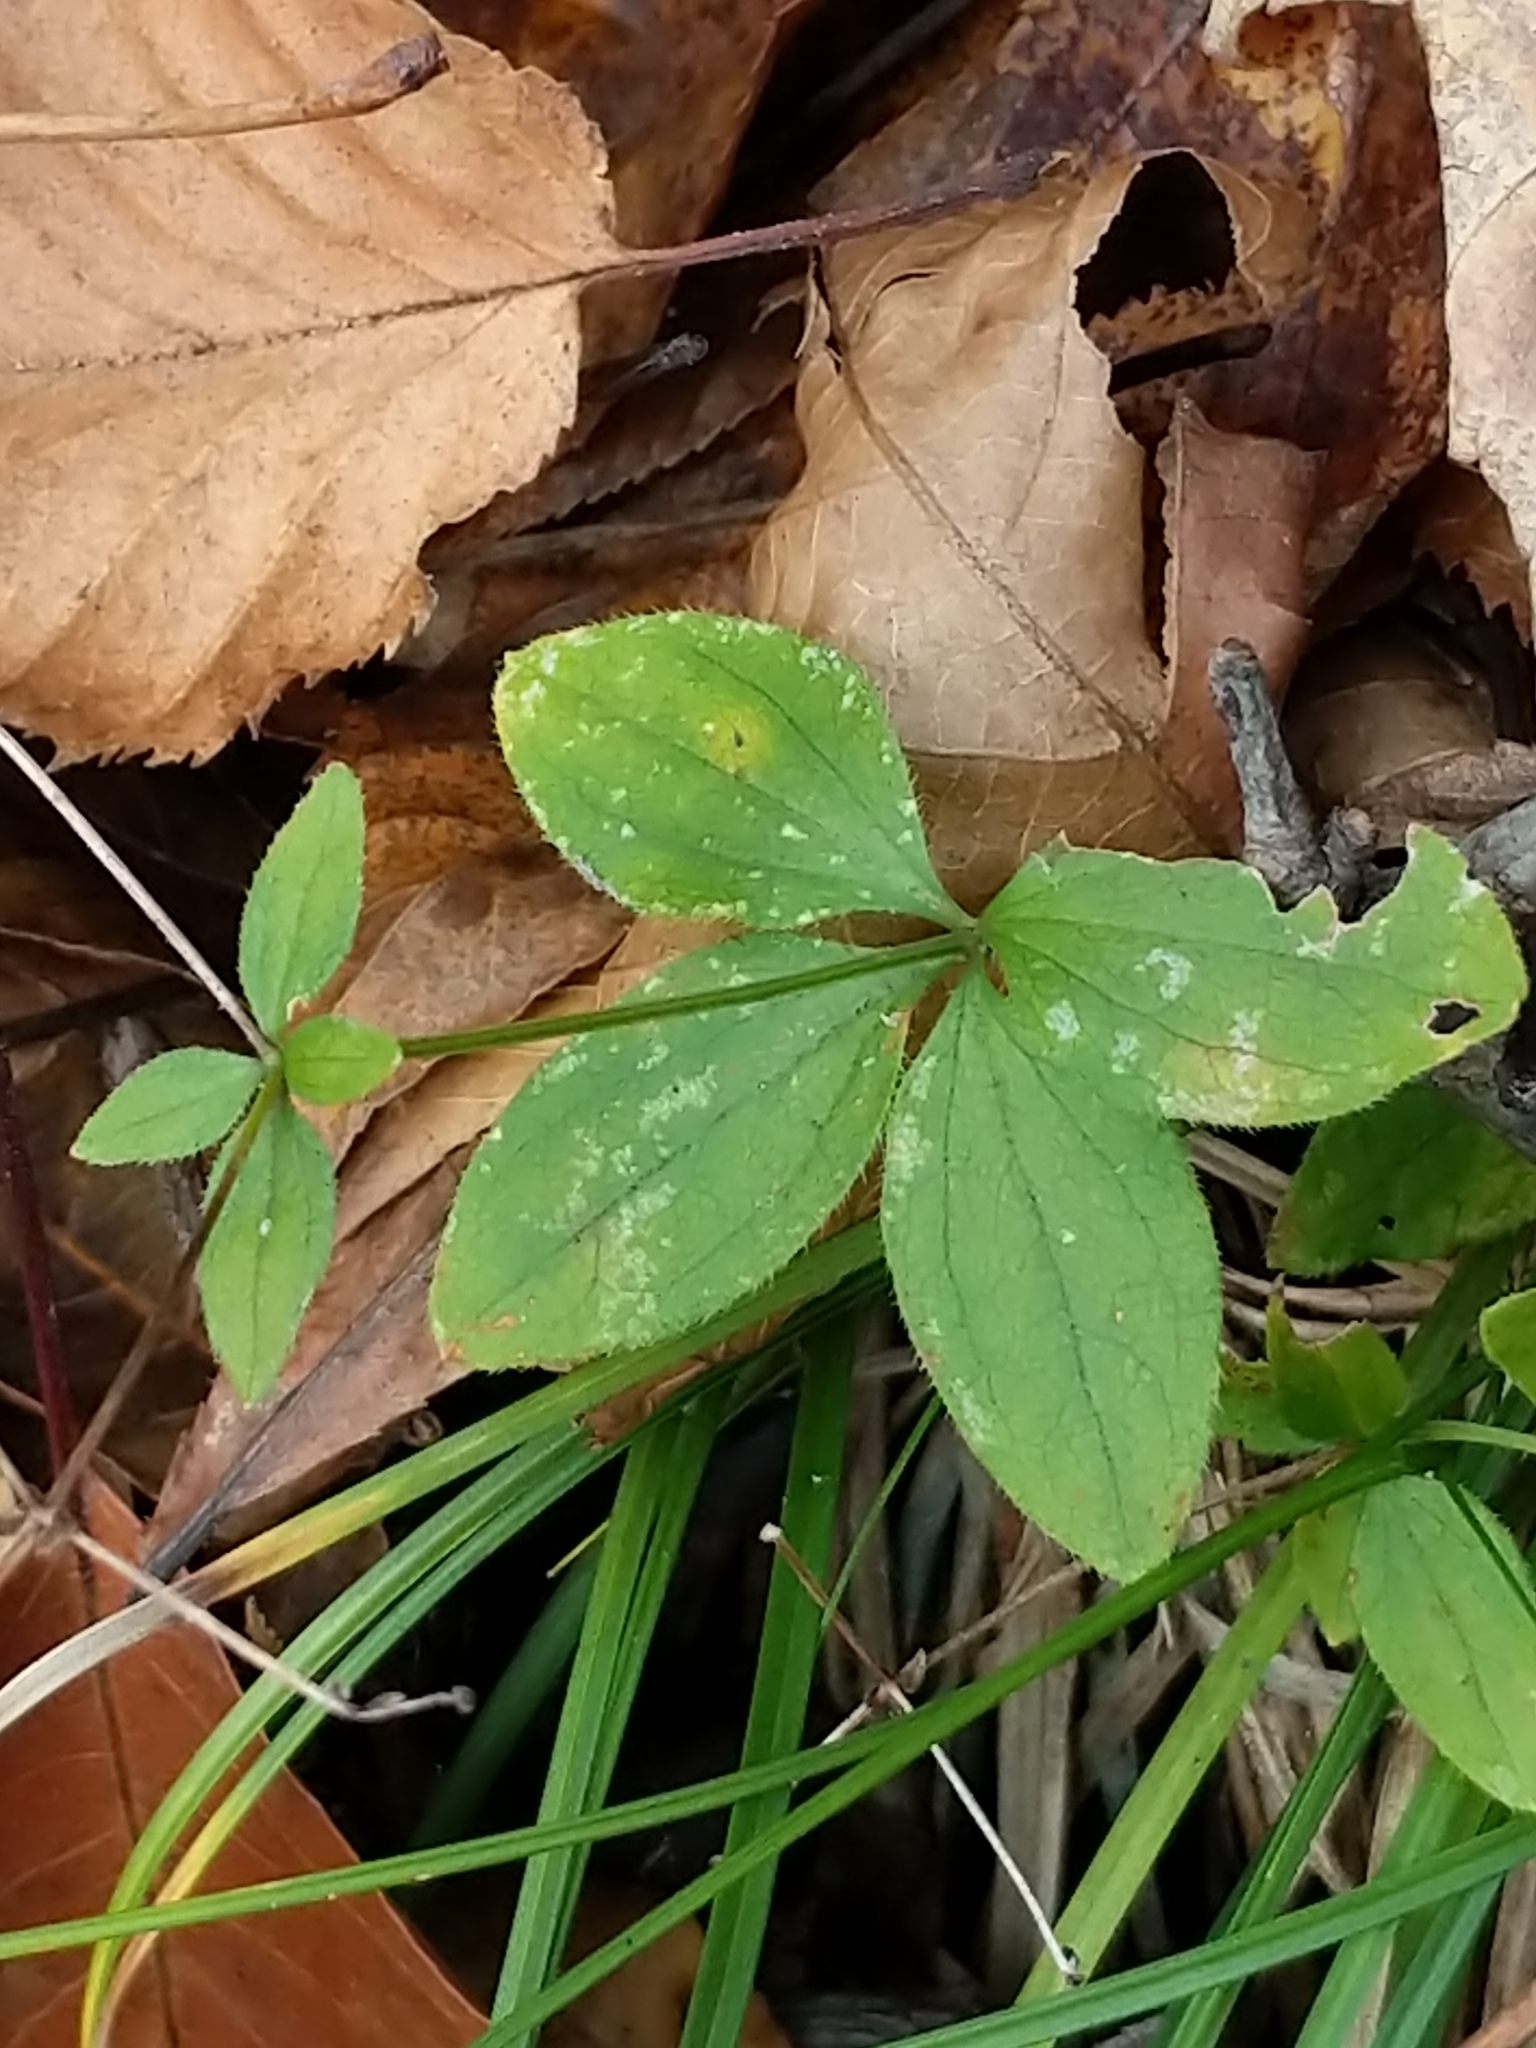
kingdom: Plantae
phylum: Tracheophyta
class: Magnoliopsida
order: Gentianales
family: Rubiaceae
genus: Galium
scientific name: Galium circaezans
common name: Forest bedstraw
